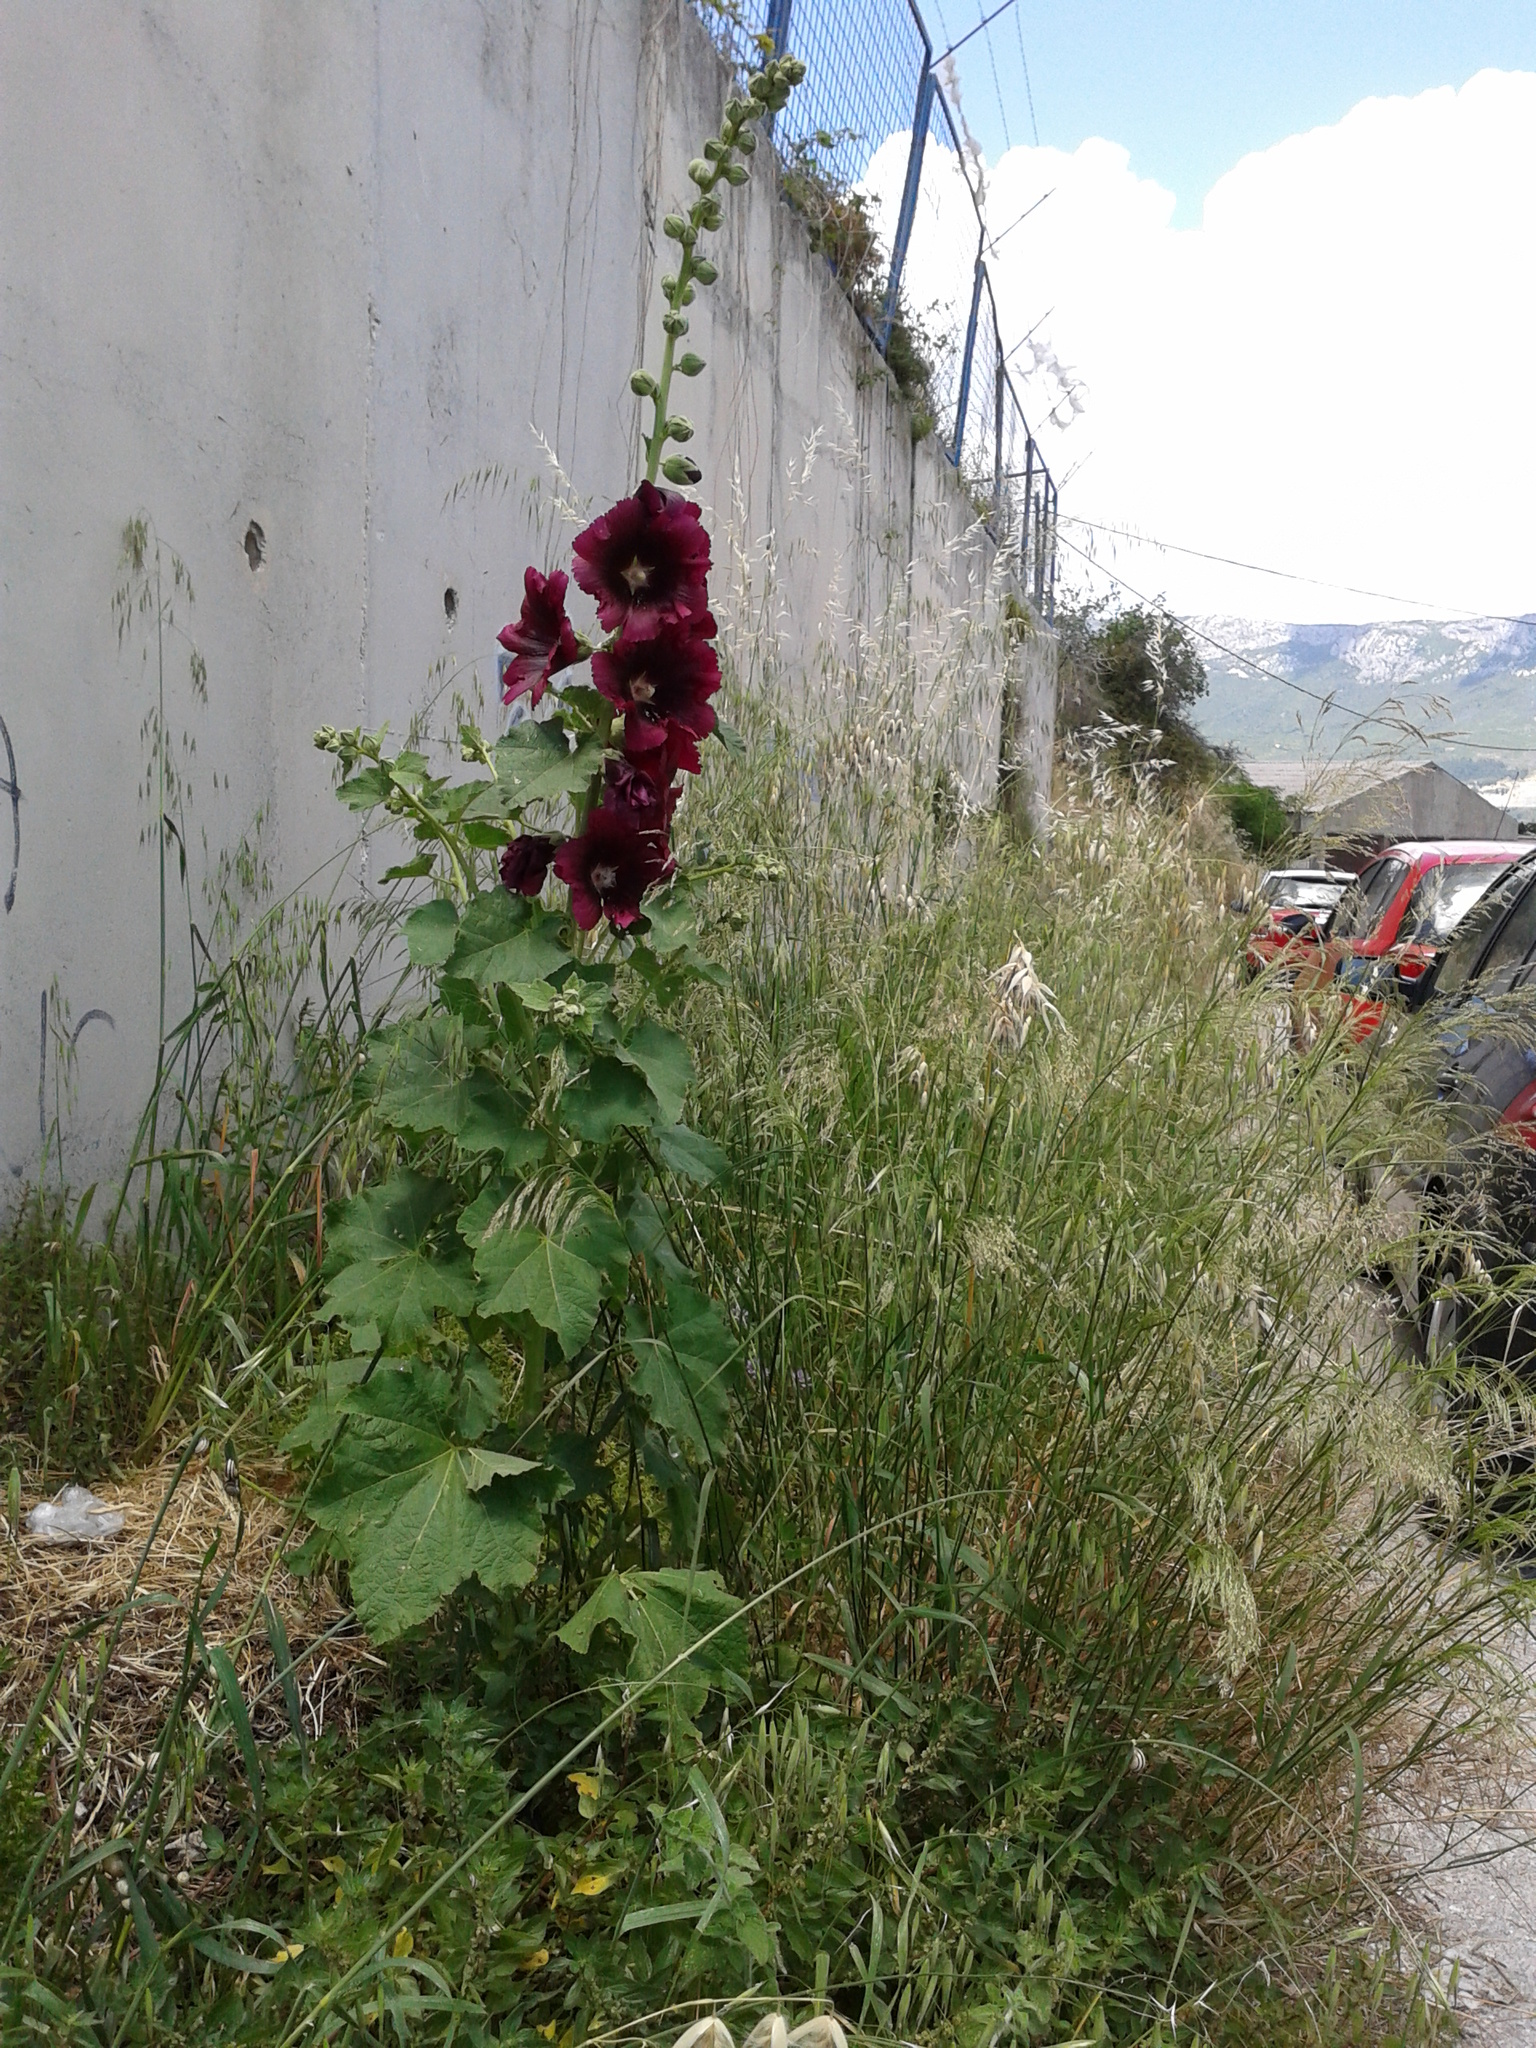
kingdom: Plantae
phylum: Tracheophyta
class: Magnoliopsida
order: Malvales
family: Malvaceae
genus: Alcea
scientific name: Alcea rosea
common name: Hollyhock
